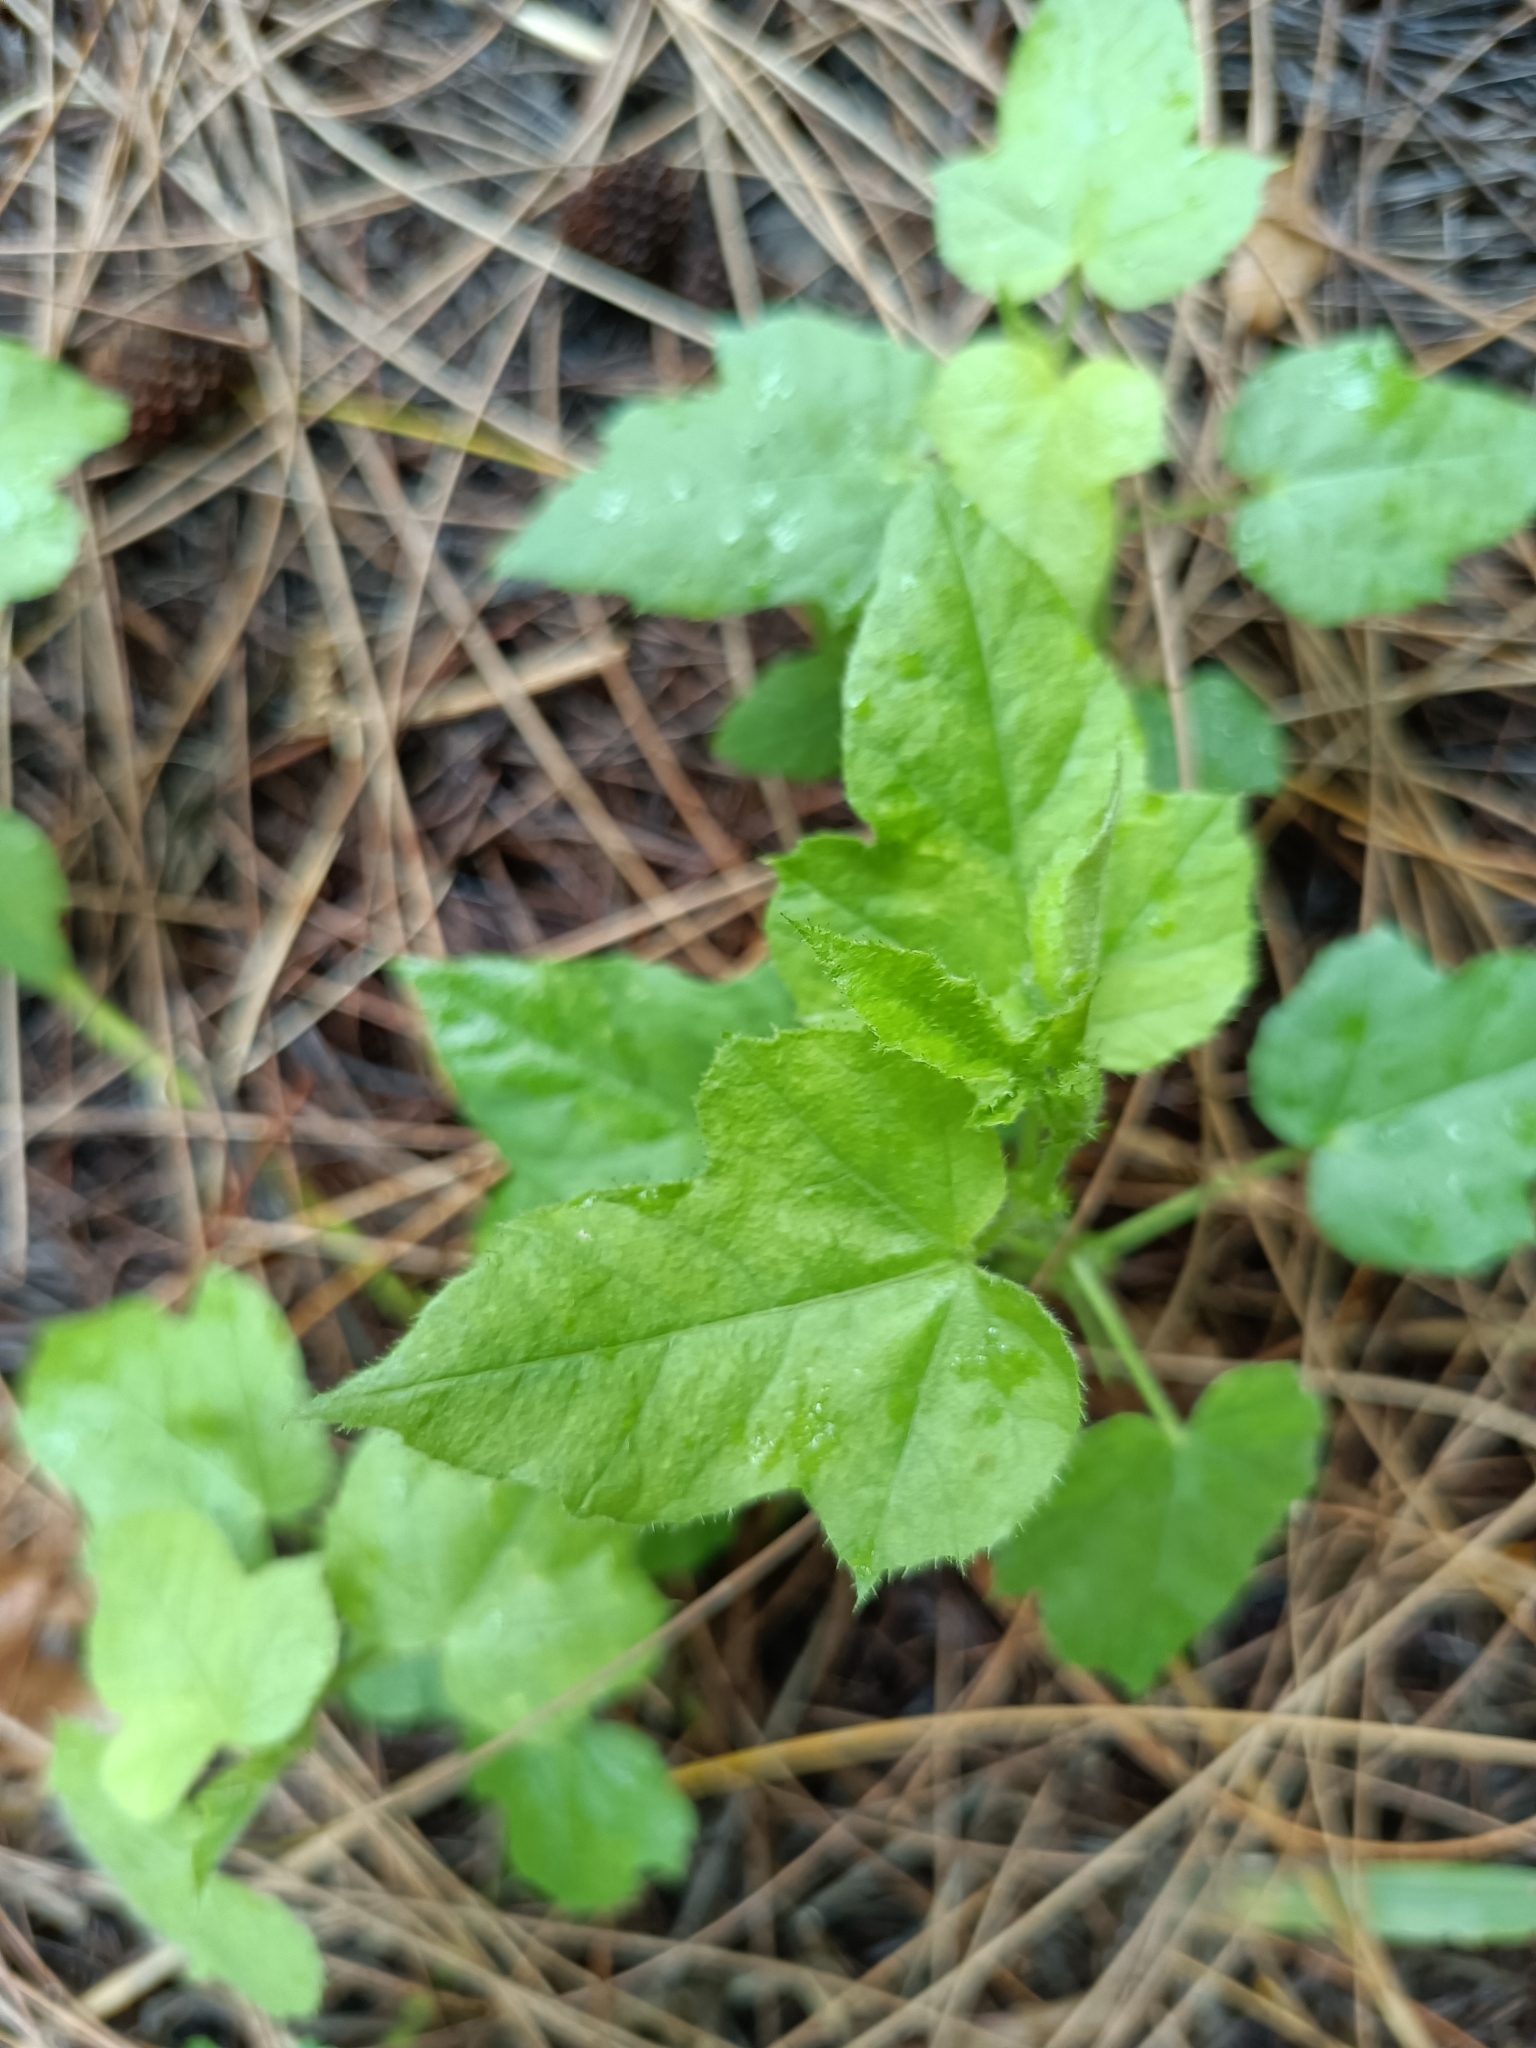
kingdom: Plantae
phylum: Tracheophyta
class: Magnoliopsida
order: Malpighiales
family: Passifloraceae
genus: Passiflora
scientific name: Passiflora vesicaria
